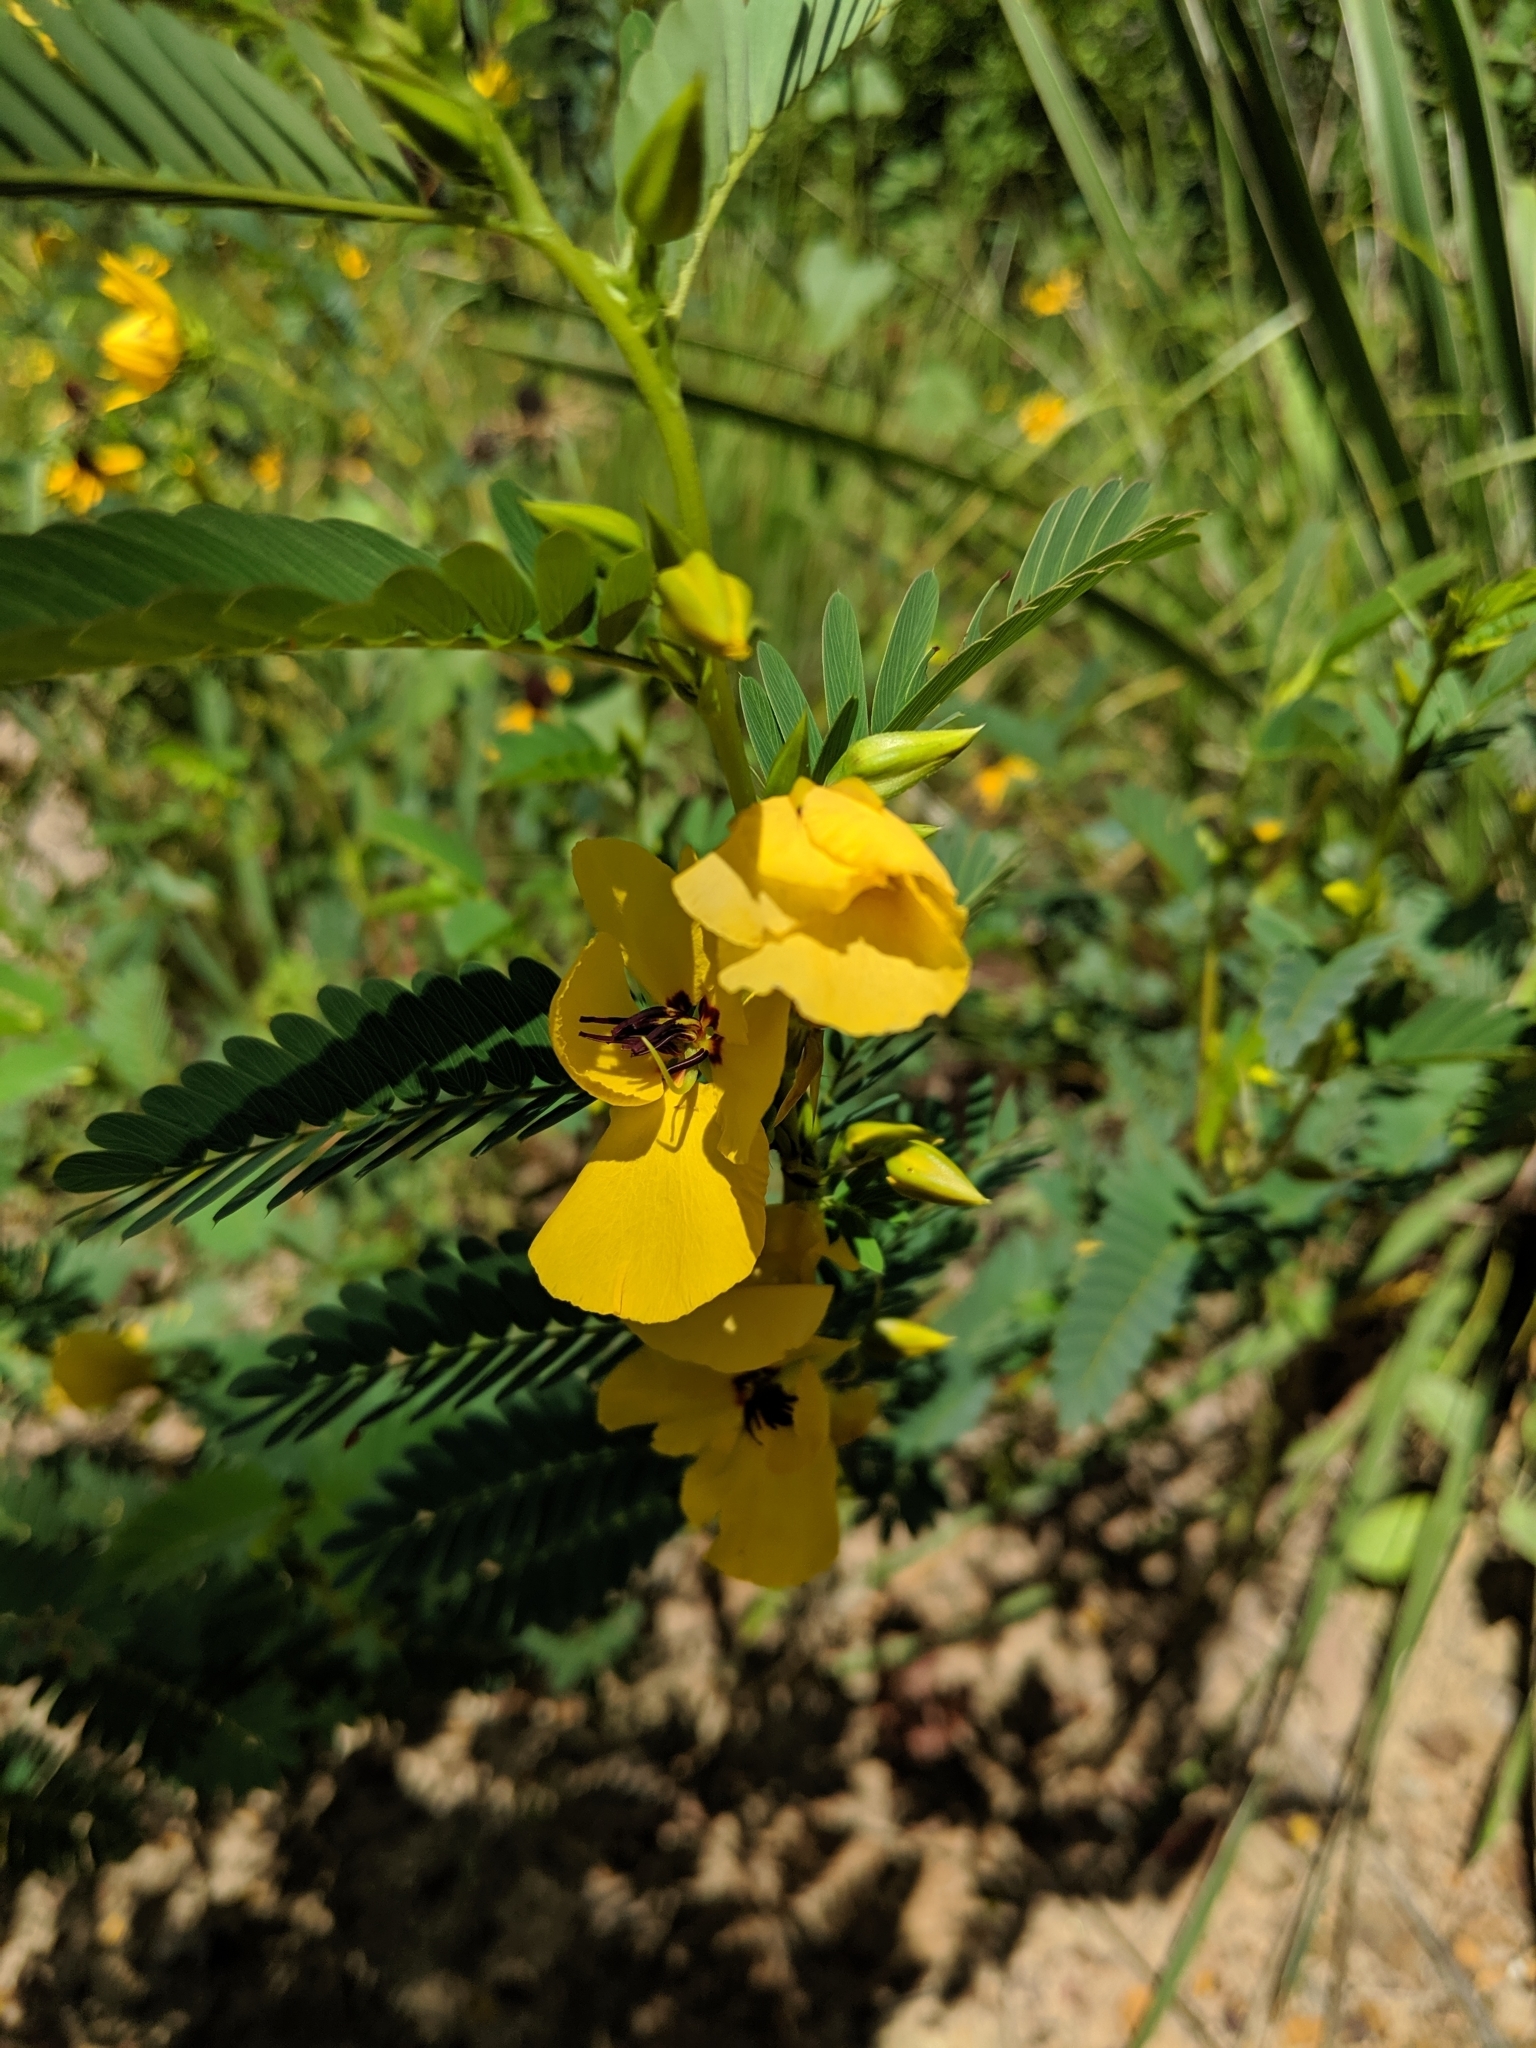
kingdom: Plantae
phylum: Tracheophyta
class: Magnoliopsida
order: Fabales
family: Fabaceae
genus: Chamaecrista
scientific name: Chamaecrista fasciculata
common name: Golden cassia
